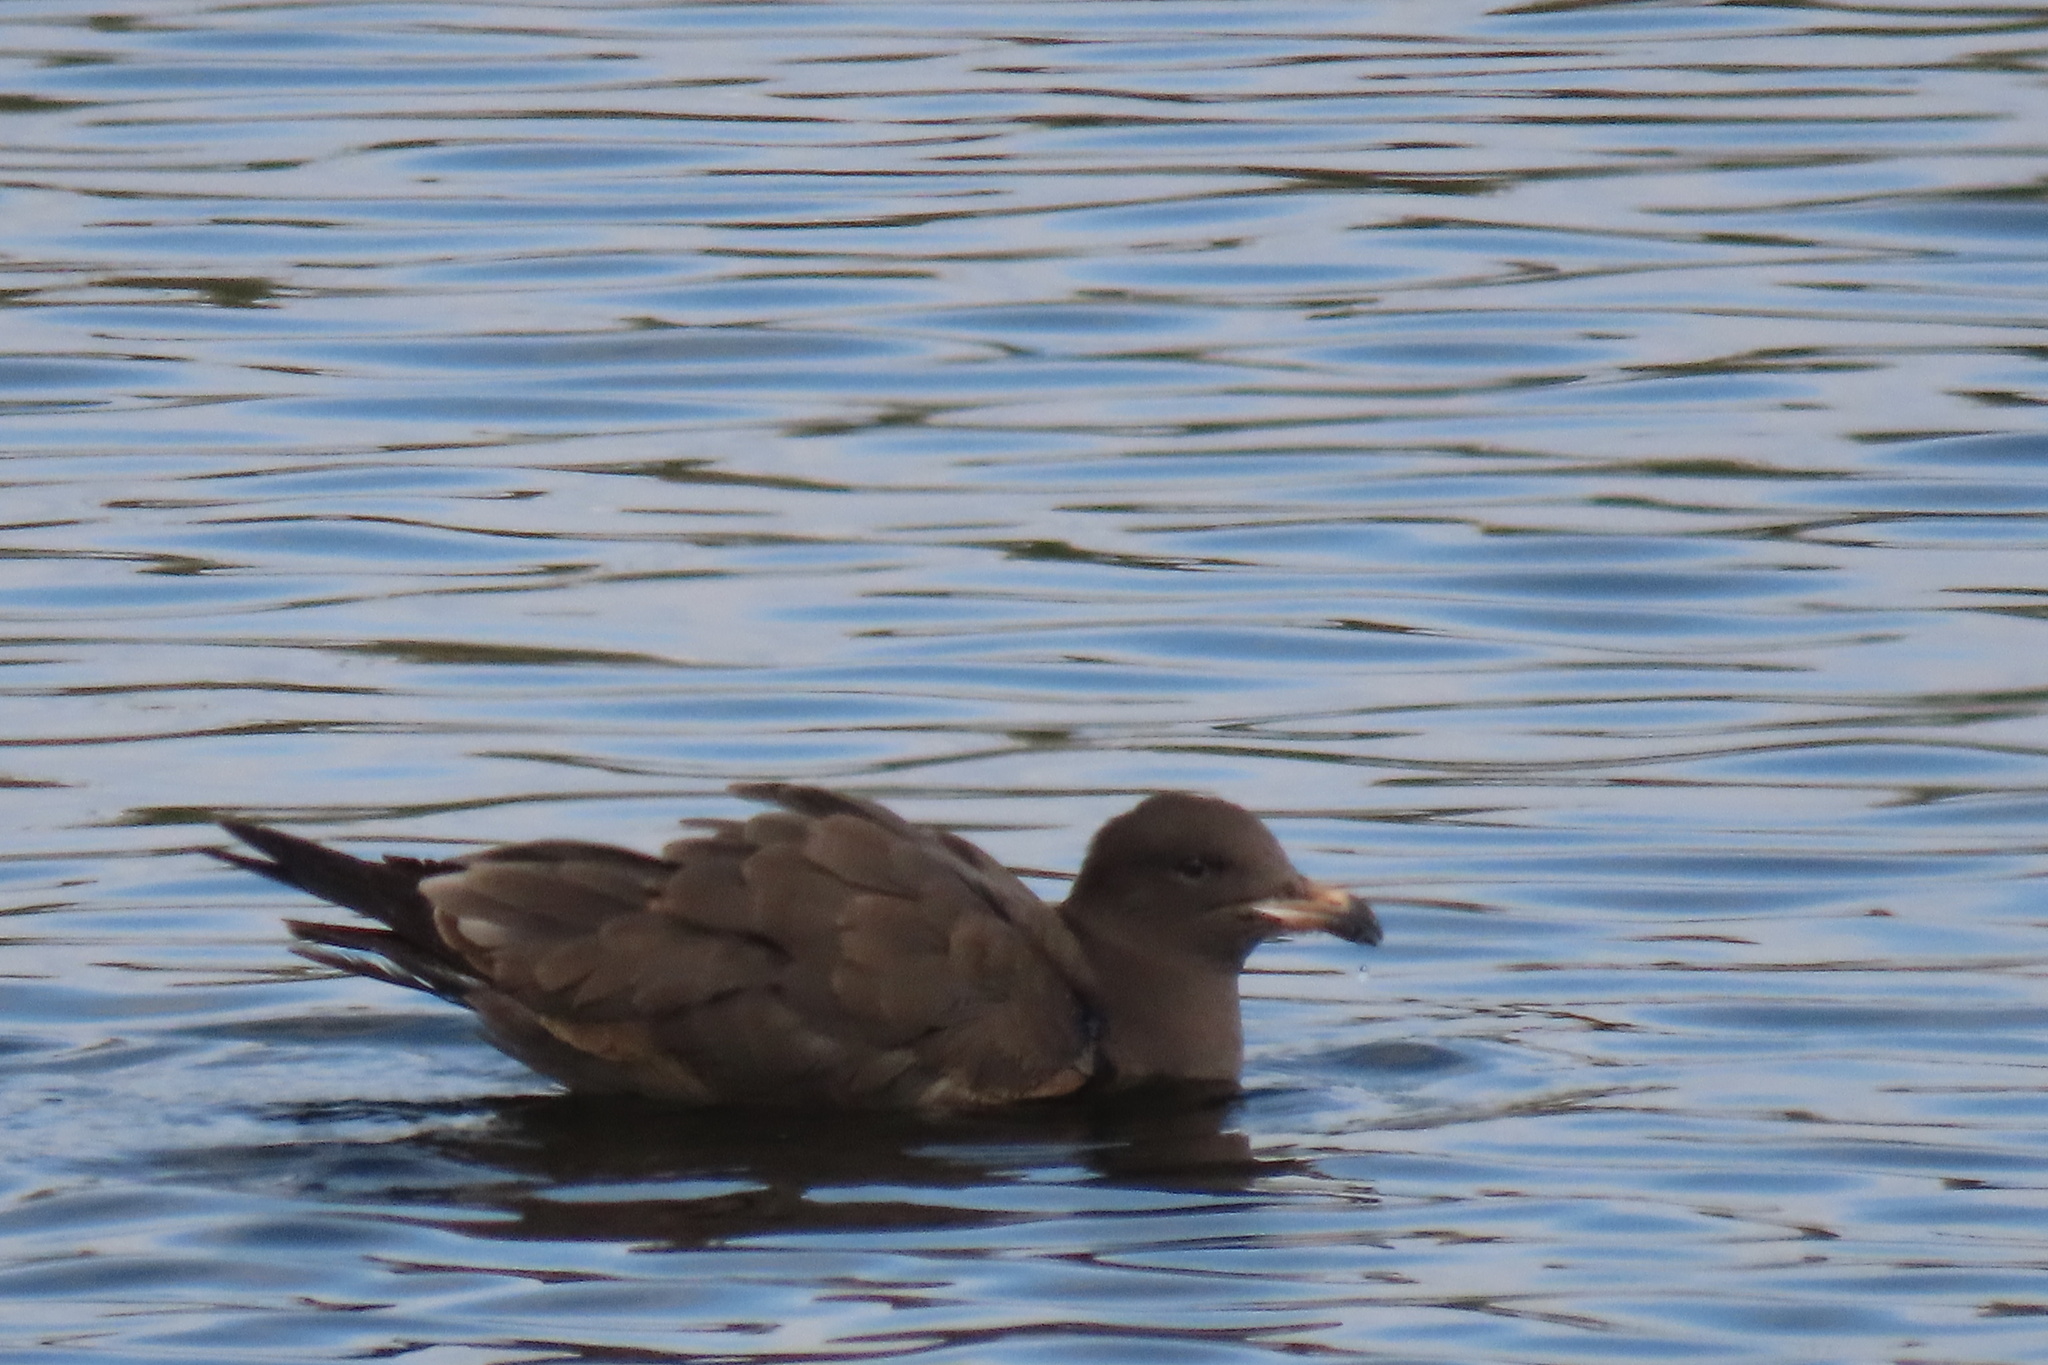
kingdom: Animalia
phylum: Chordata
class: Aves
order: Charadriiformes
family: Laridae
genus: Larus
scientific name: Larus heermanni
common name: Heermann's gull
